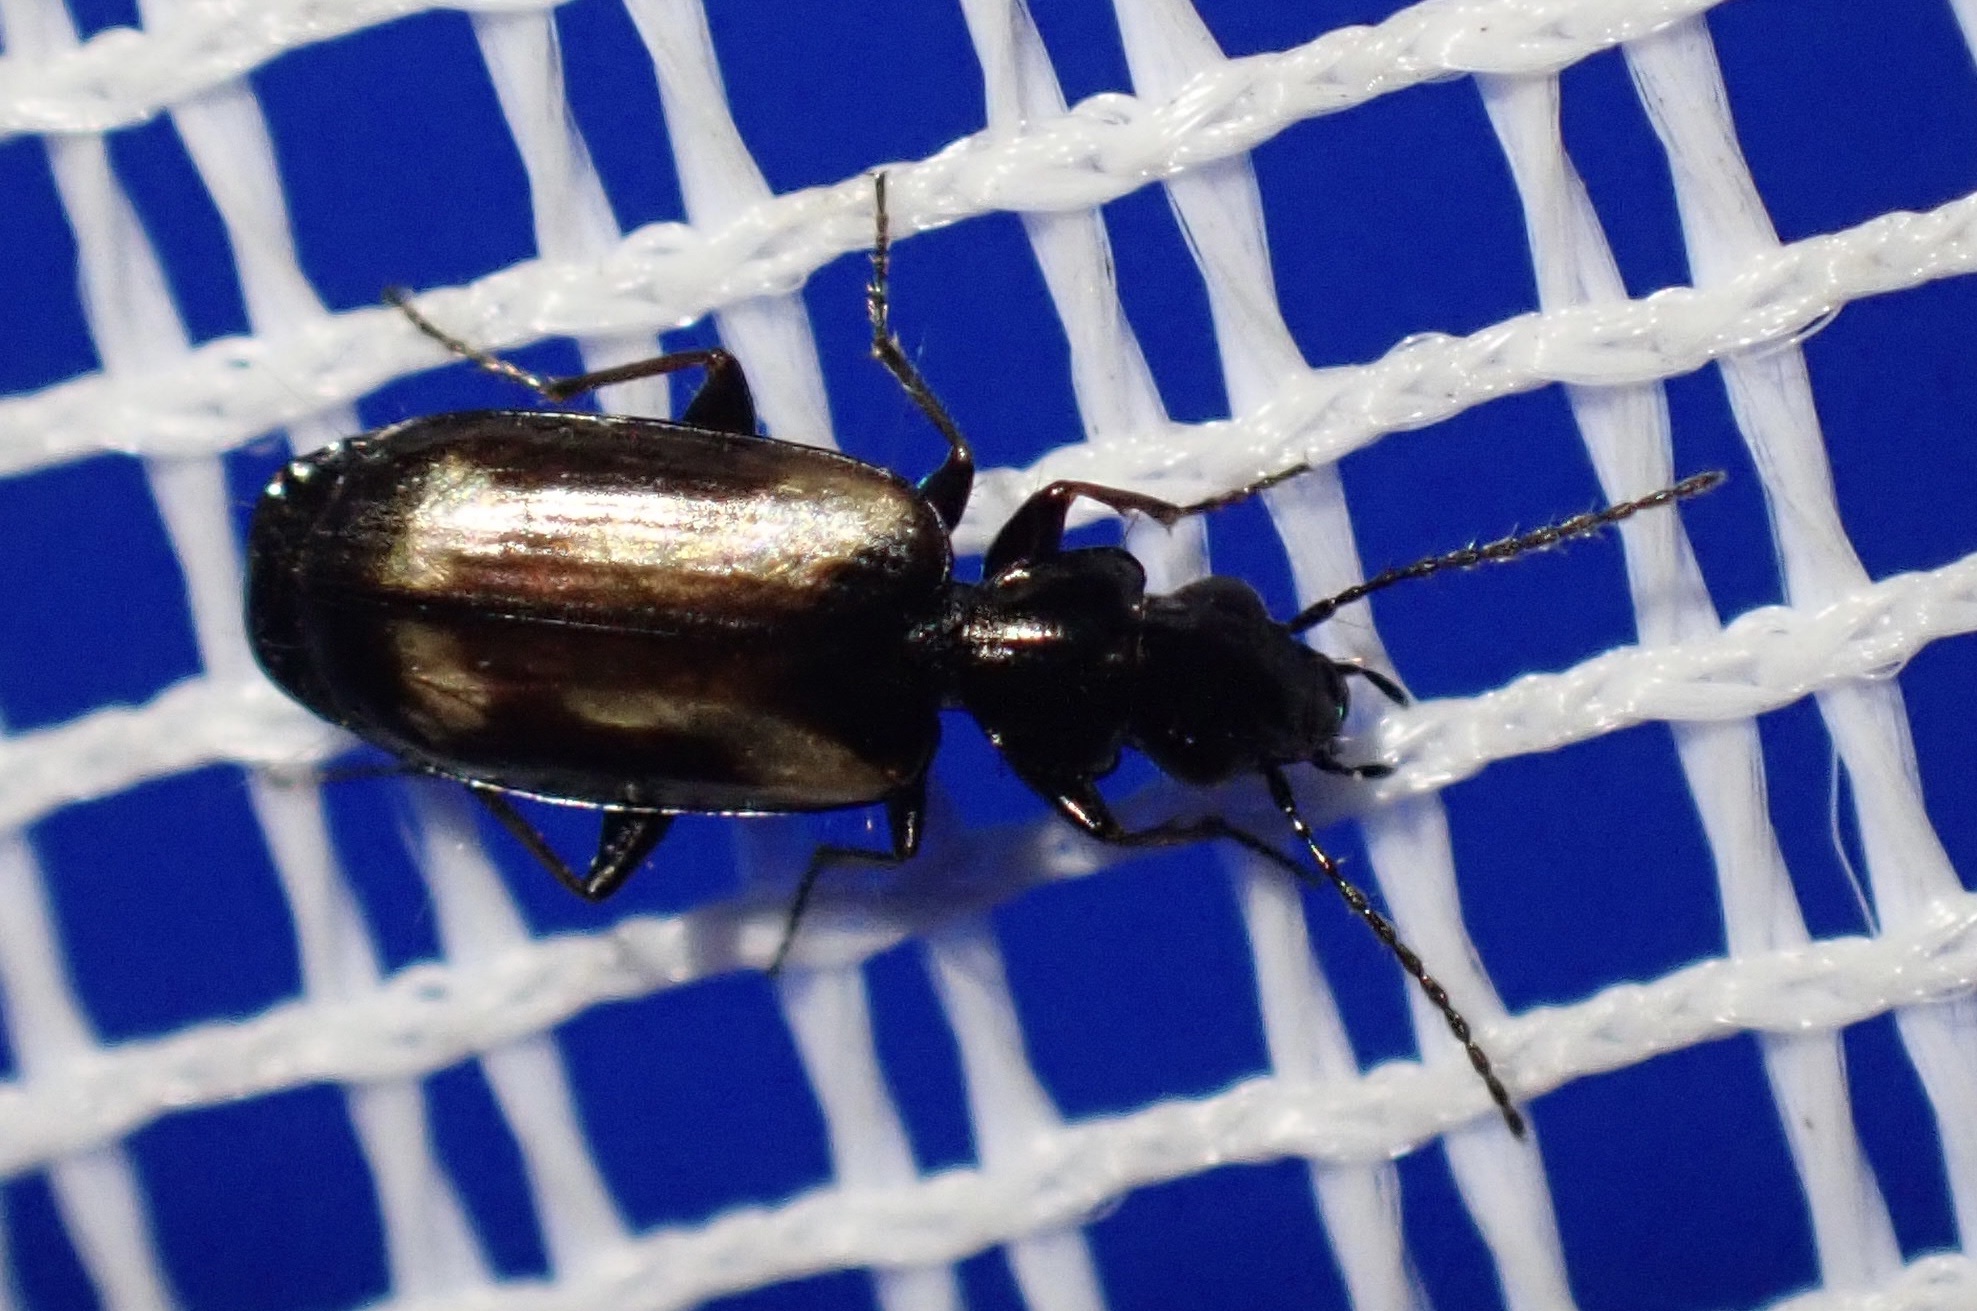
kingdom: Animalia
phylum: Arthropoda
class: Insecta
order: Coleoptera
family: Carabidae
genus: Syntomus
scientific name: Syntomus fuscomaculatus
